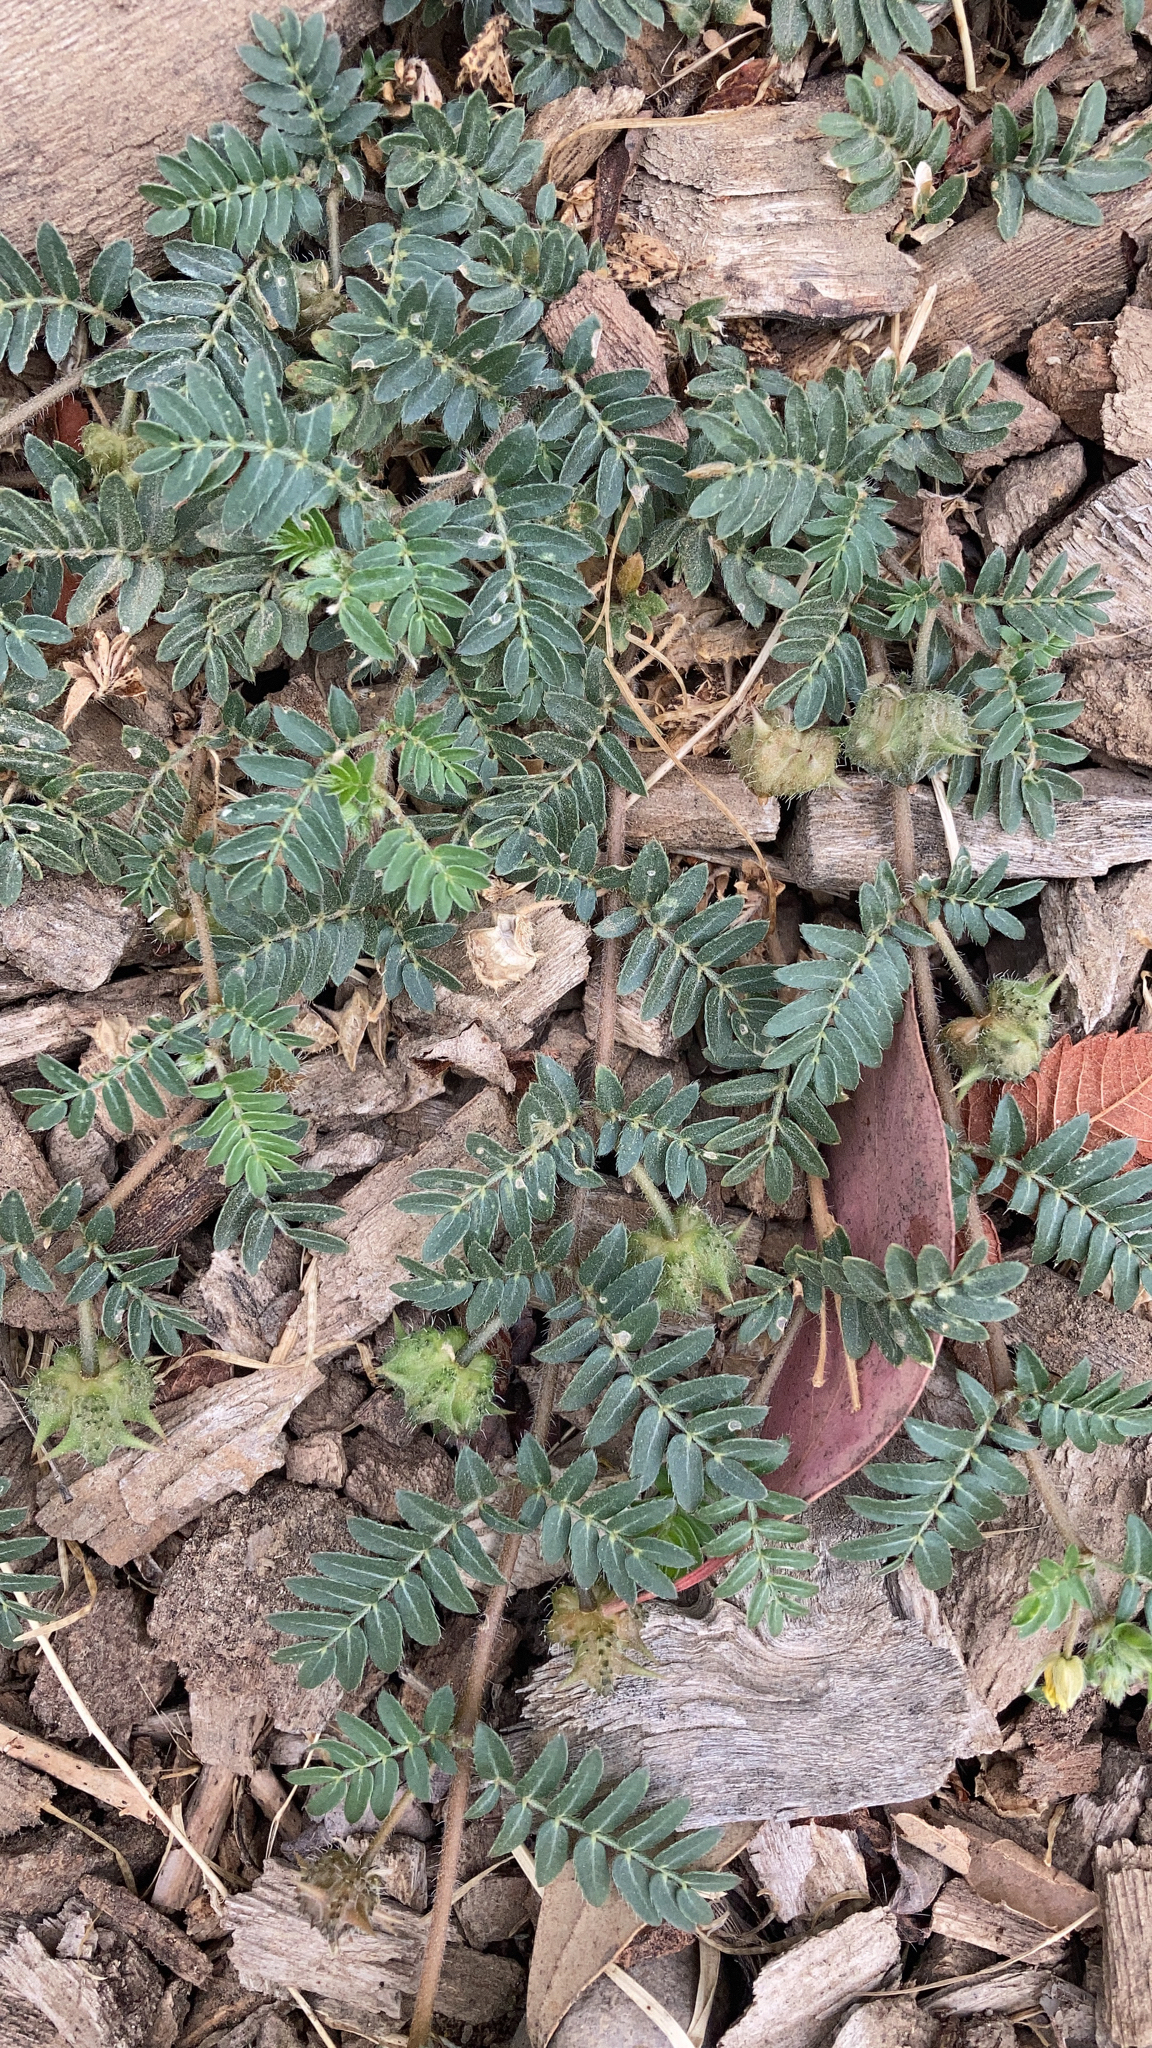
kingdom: Plantae
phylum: Tracheophyta
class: Magnoliopsida
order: Zygophyllales
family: Zygophyllaceae
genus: Tribulus
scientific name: Tribulus terrestris
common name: Puncturevine
